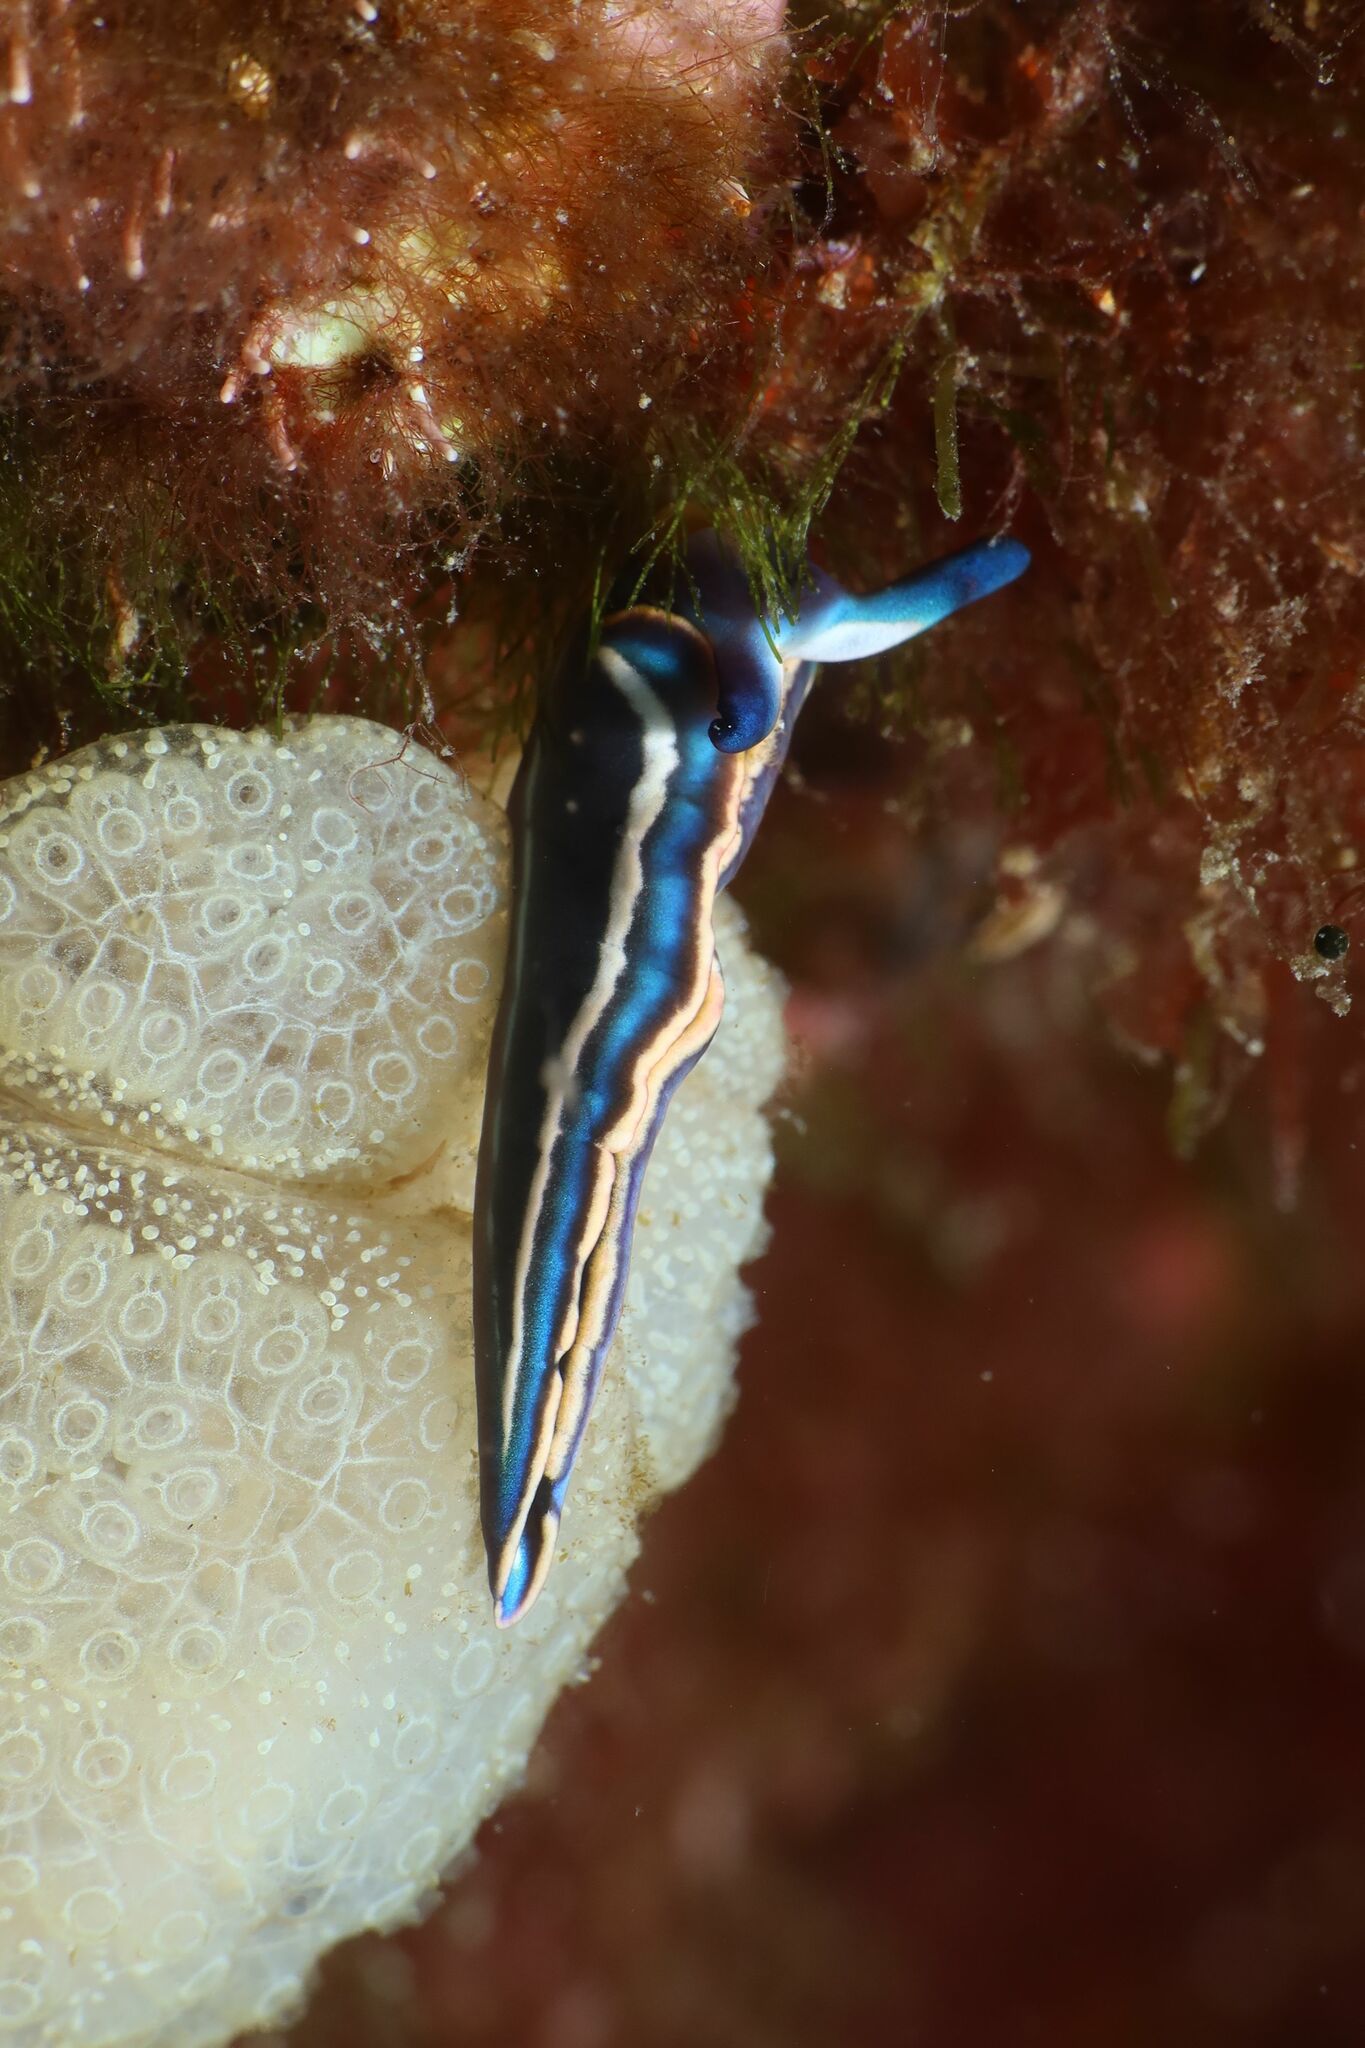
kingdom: Animalia
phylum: Mollusca
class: Gastropoda
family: Plakobranchidae
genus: Thuridilla
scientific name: Thuridilla hopei
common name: Splendid elysia
